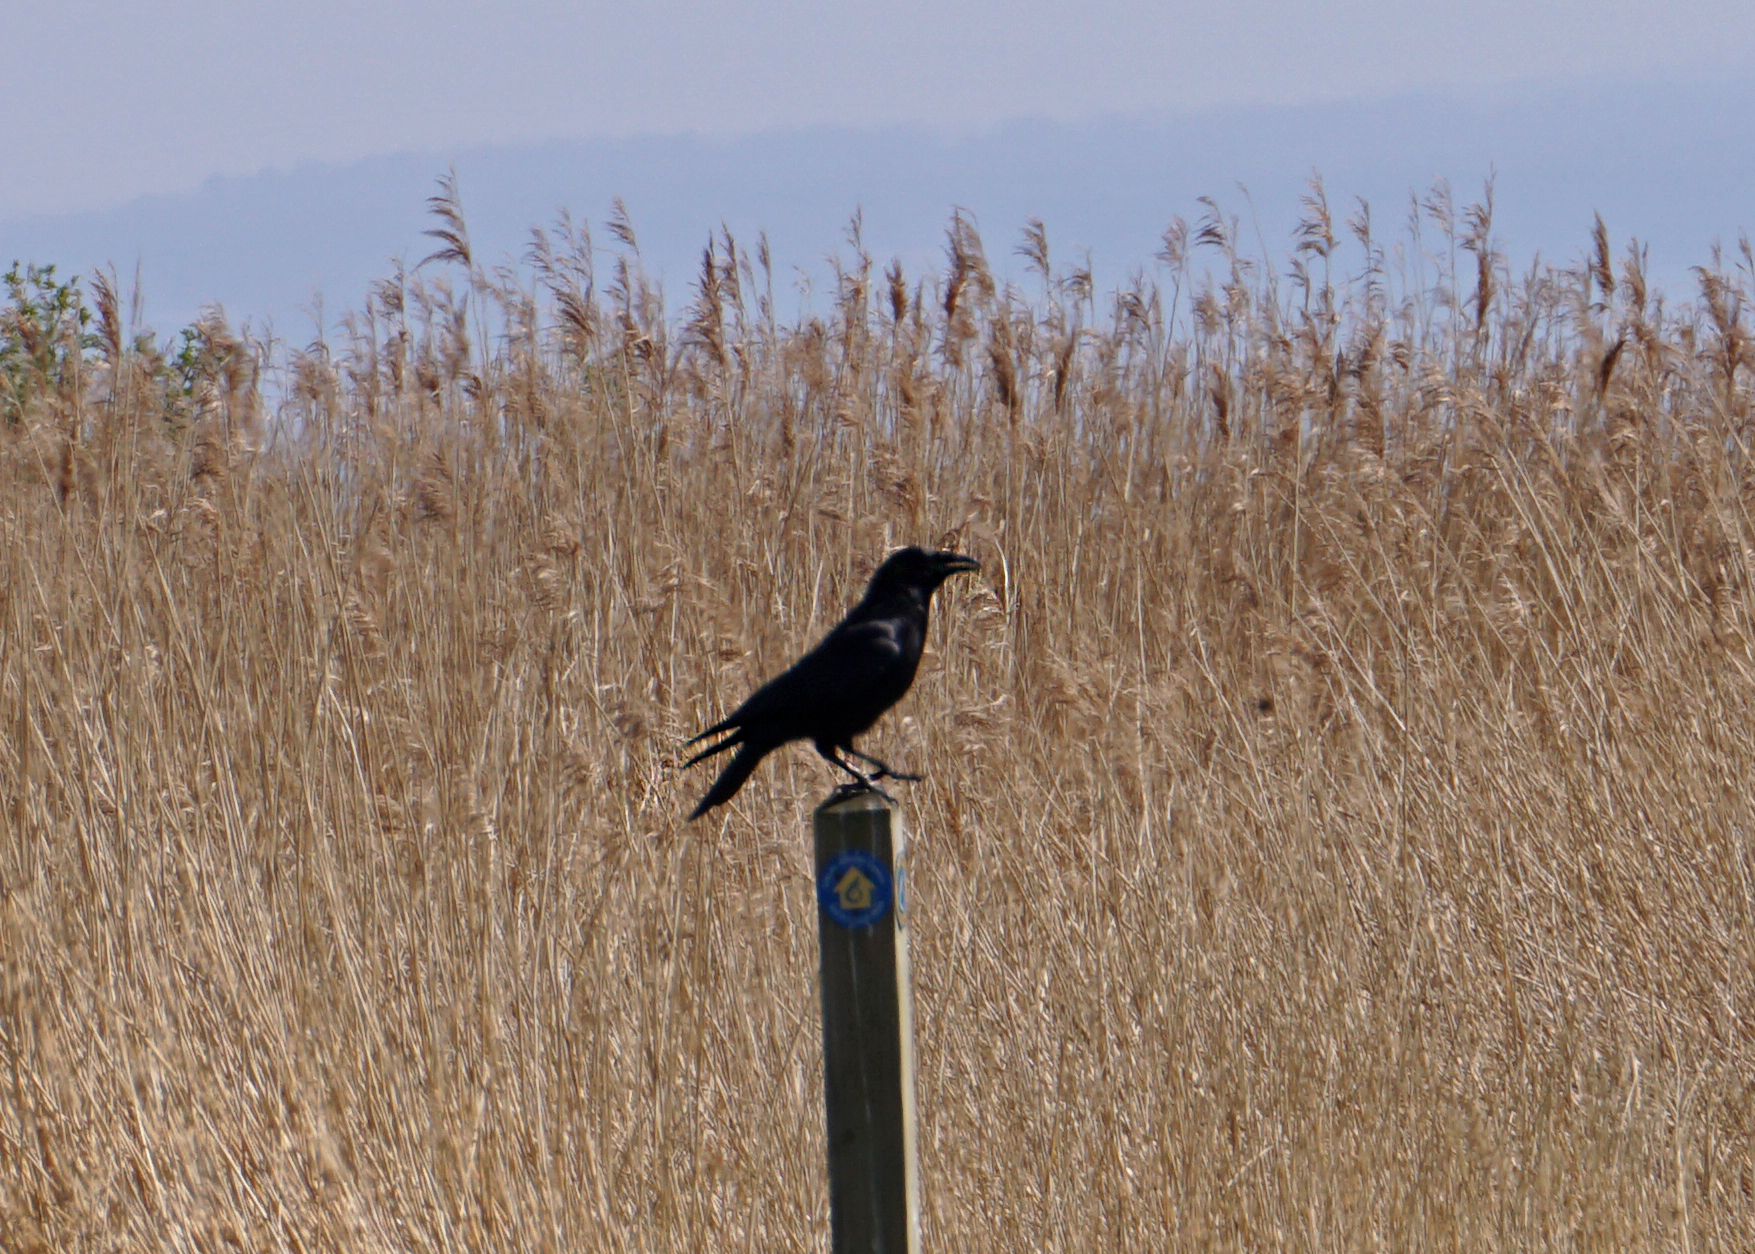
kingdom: Animalia
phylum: Chordata
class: Aves
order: Passeriformes
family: Corvidae
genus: Corvus
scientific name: Corvus corone
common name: Carrion crow
